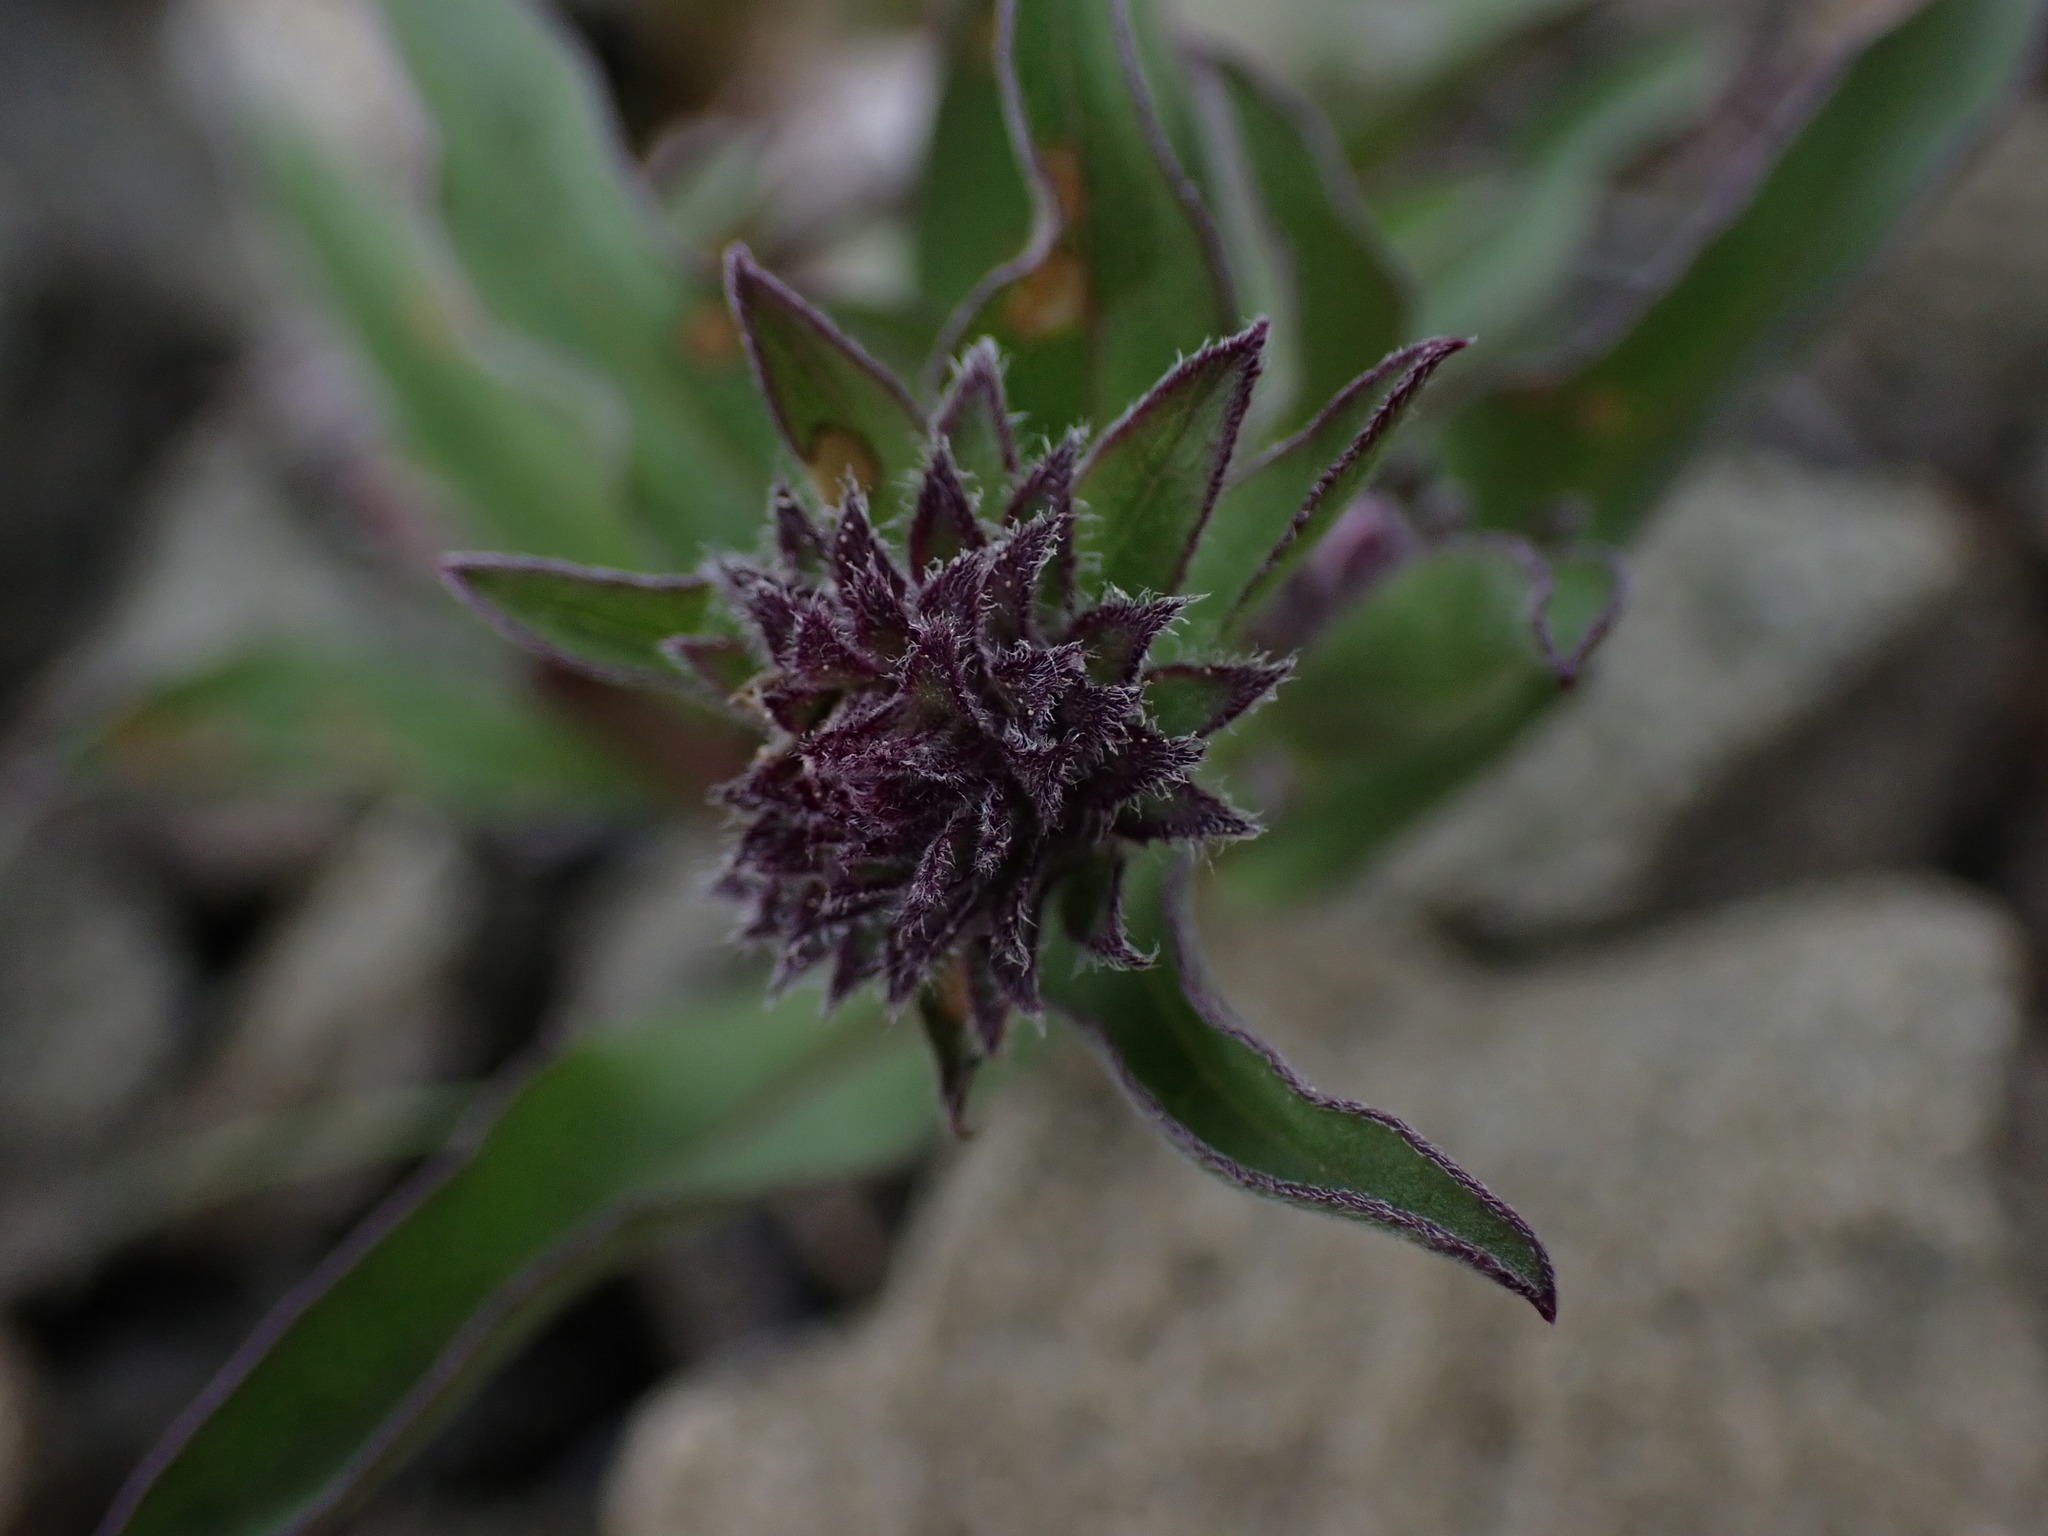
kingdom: Plantae
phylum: Tracheophyta
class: Magnoliopsida
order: Asterales
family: Asteraceae
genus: Eurybia
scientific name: Eurybia sibirica
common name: Arctic aster
